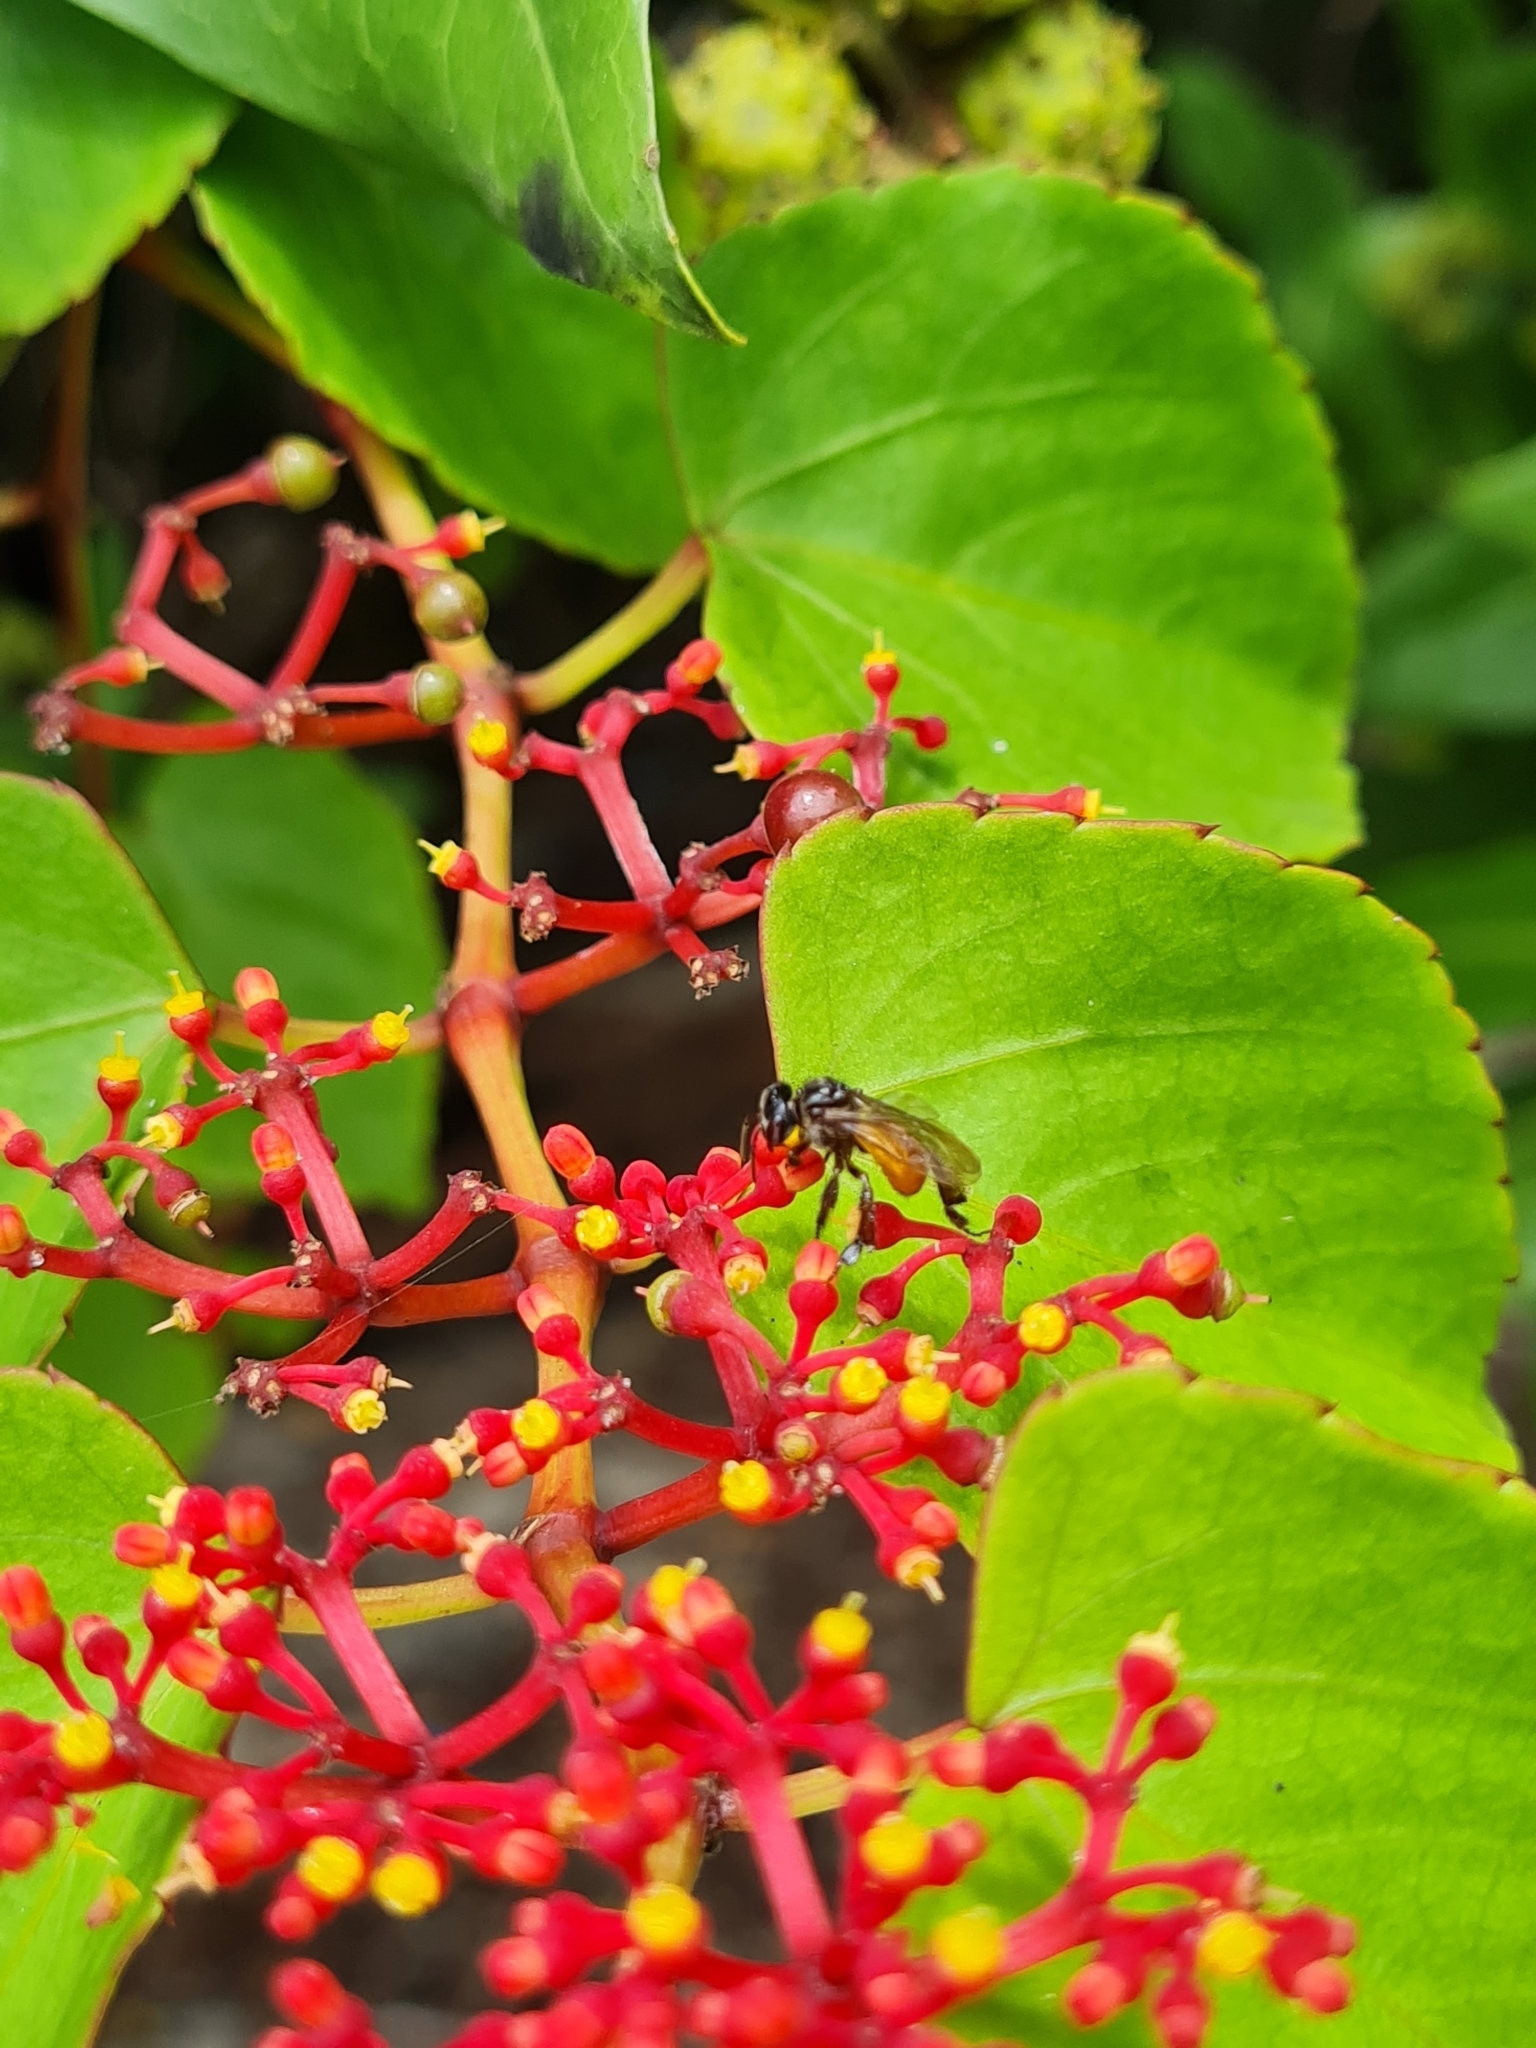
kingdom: Animalia
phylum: Arthropoda
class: Insecta
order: Hymenoptera
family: Apidae
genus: Trigona
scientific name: Trigona fulviventris
